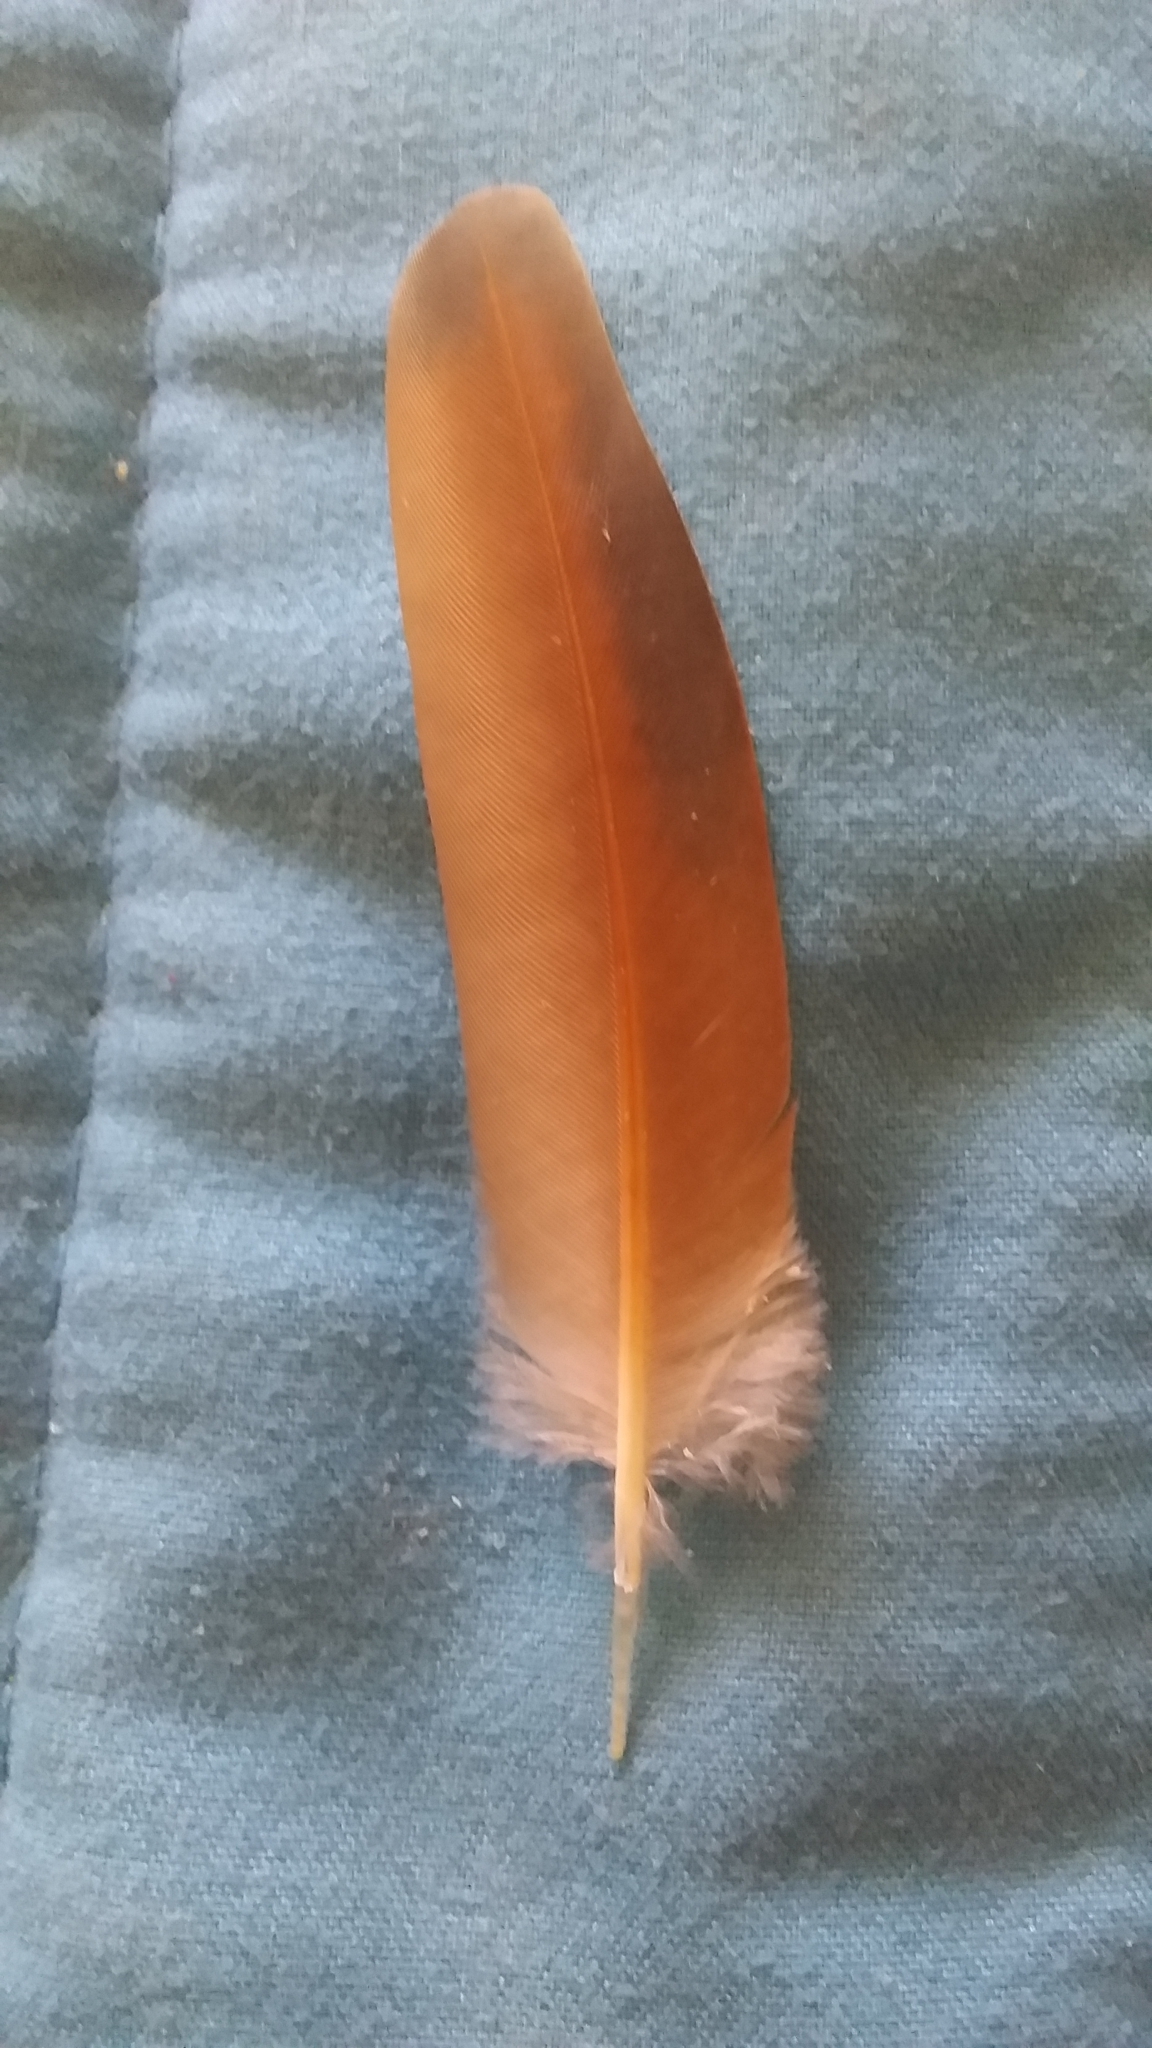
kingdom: Animalia
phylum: Chordata
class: Aves
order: Columbiformes
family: Columbidae
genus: Columbina
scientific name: Columbina inca
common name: Inca dove
